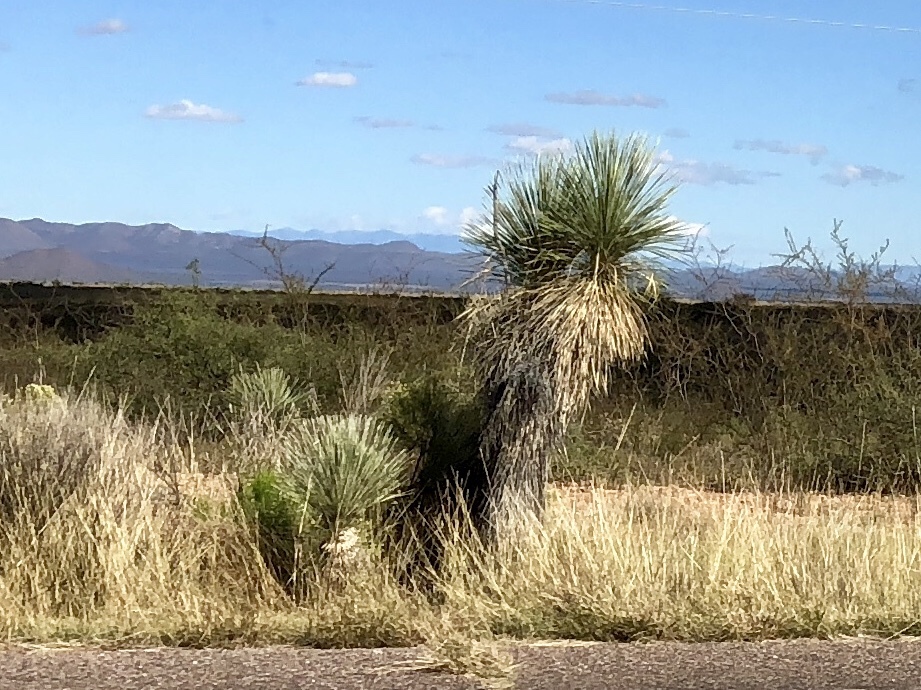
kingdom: Plantae
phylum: Tracheophyta
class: Liliopsida
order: Asparagales
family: Asparagaceae
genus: Yucca
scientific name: Yucca elata
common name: Palmella
